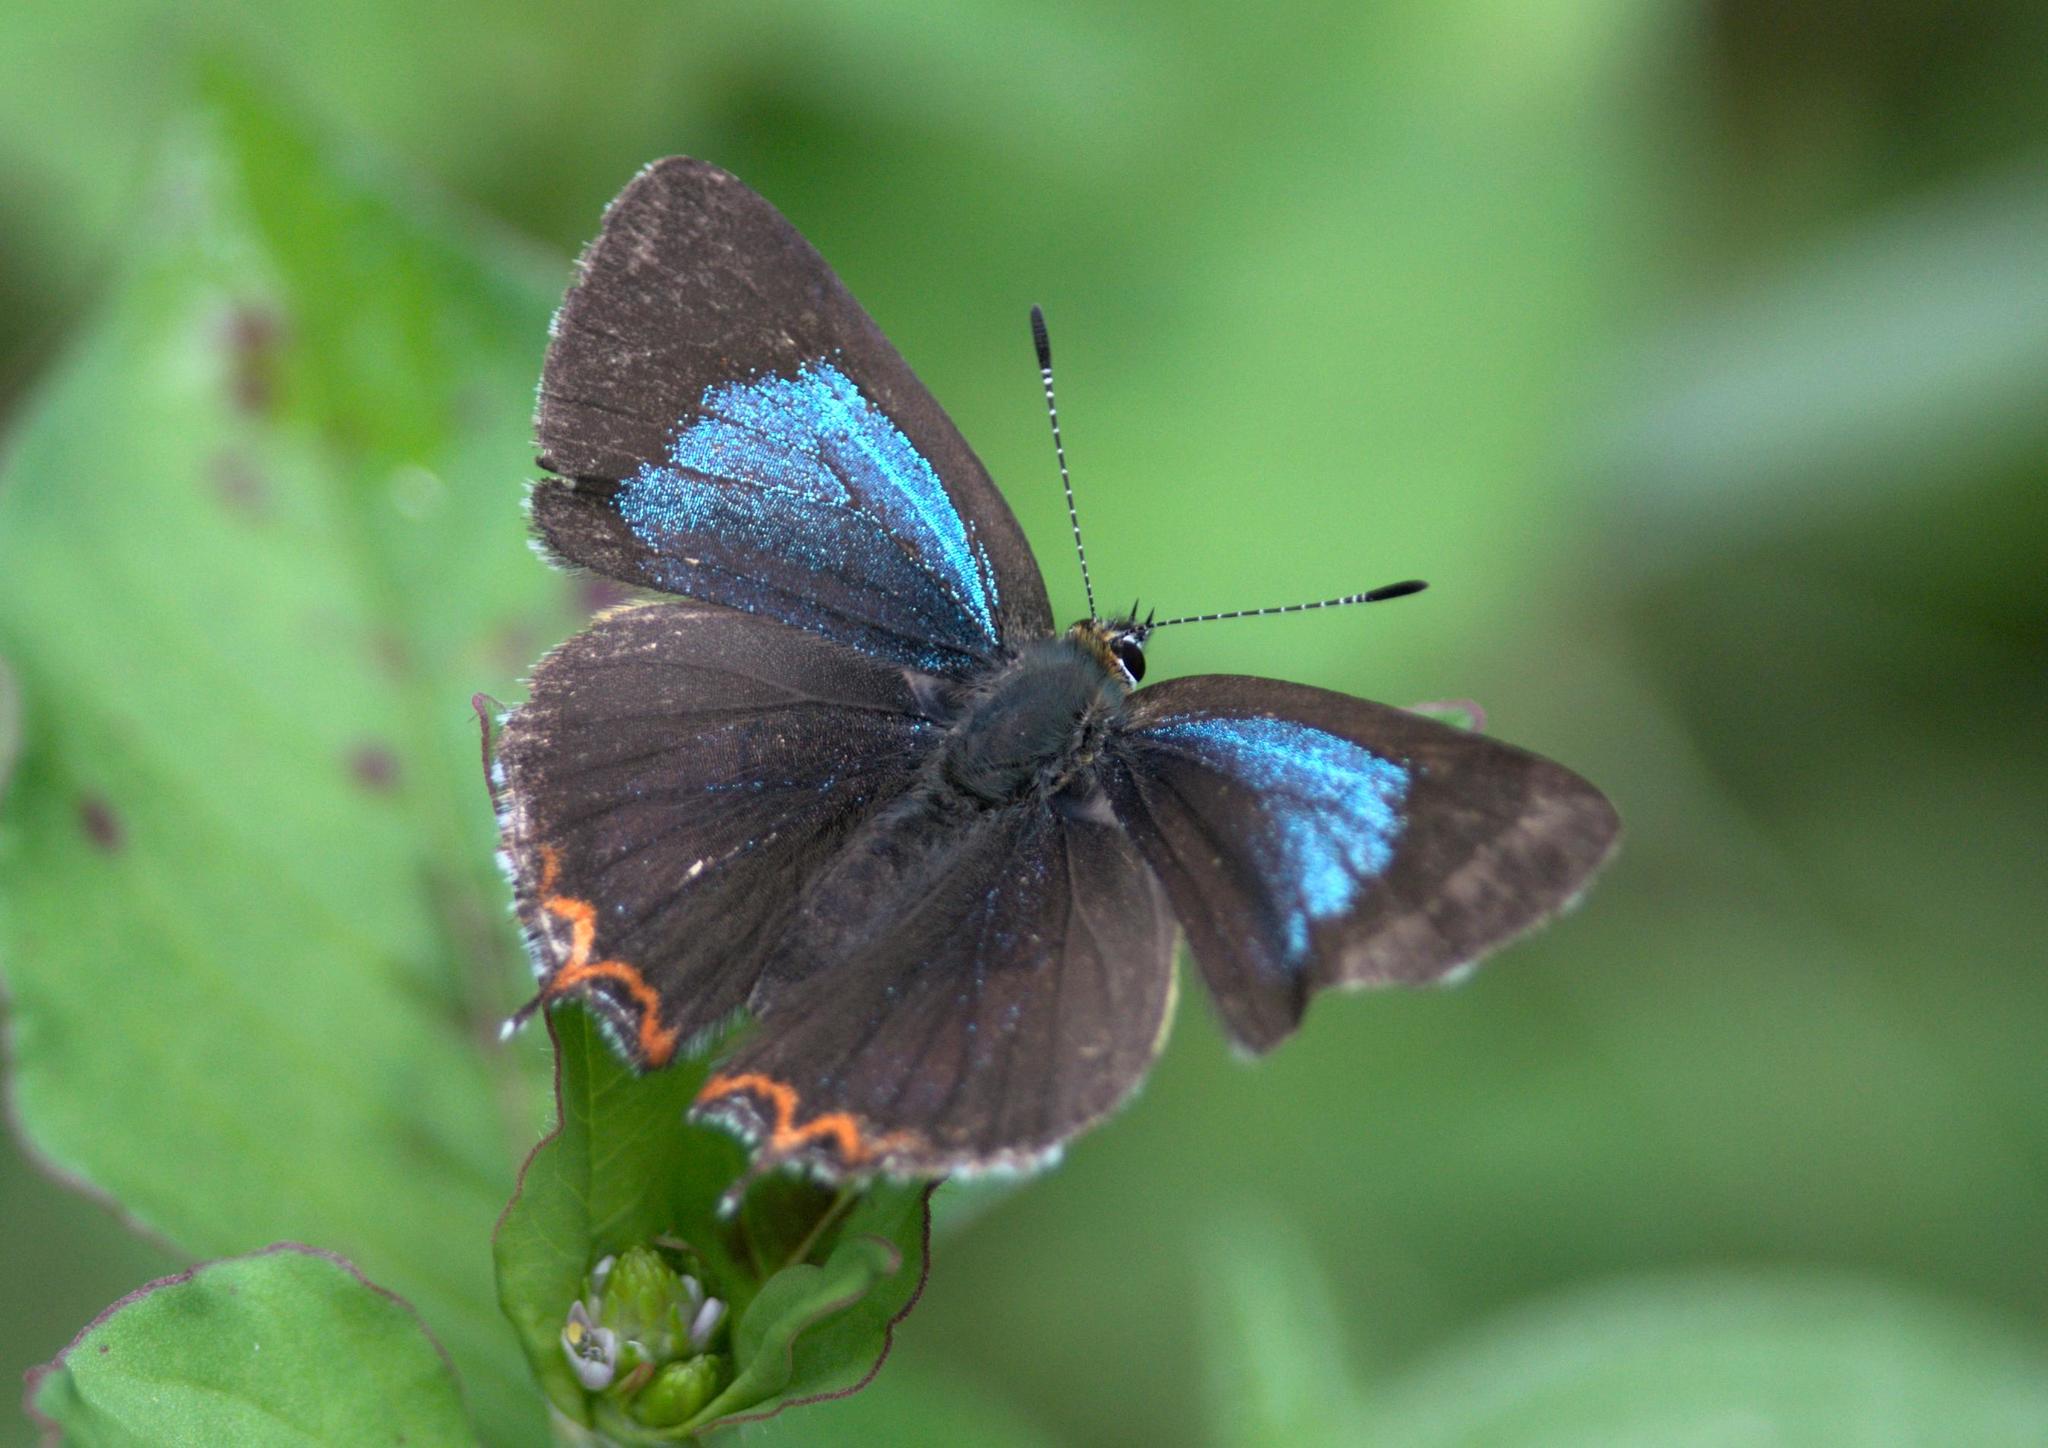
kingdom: Animalia
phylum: Arthropoda
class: Insecta
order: Lepidoptera
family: Lycaenidae
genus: Heliophorus
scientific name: Heliophorus
